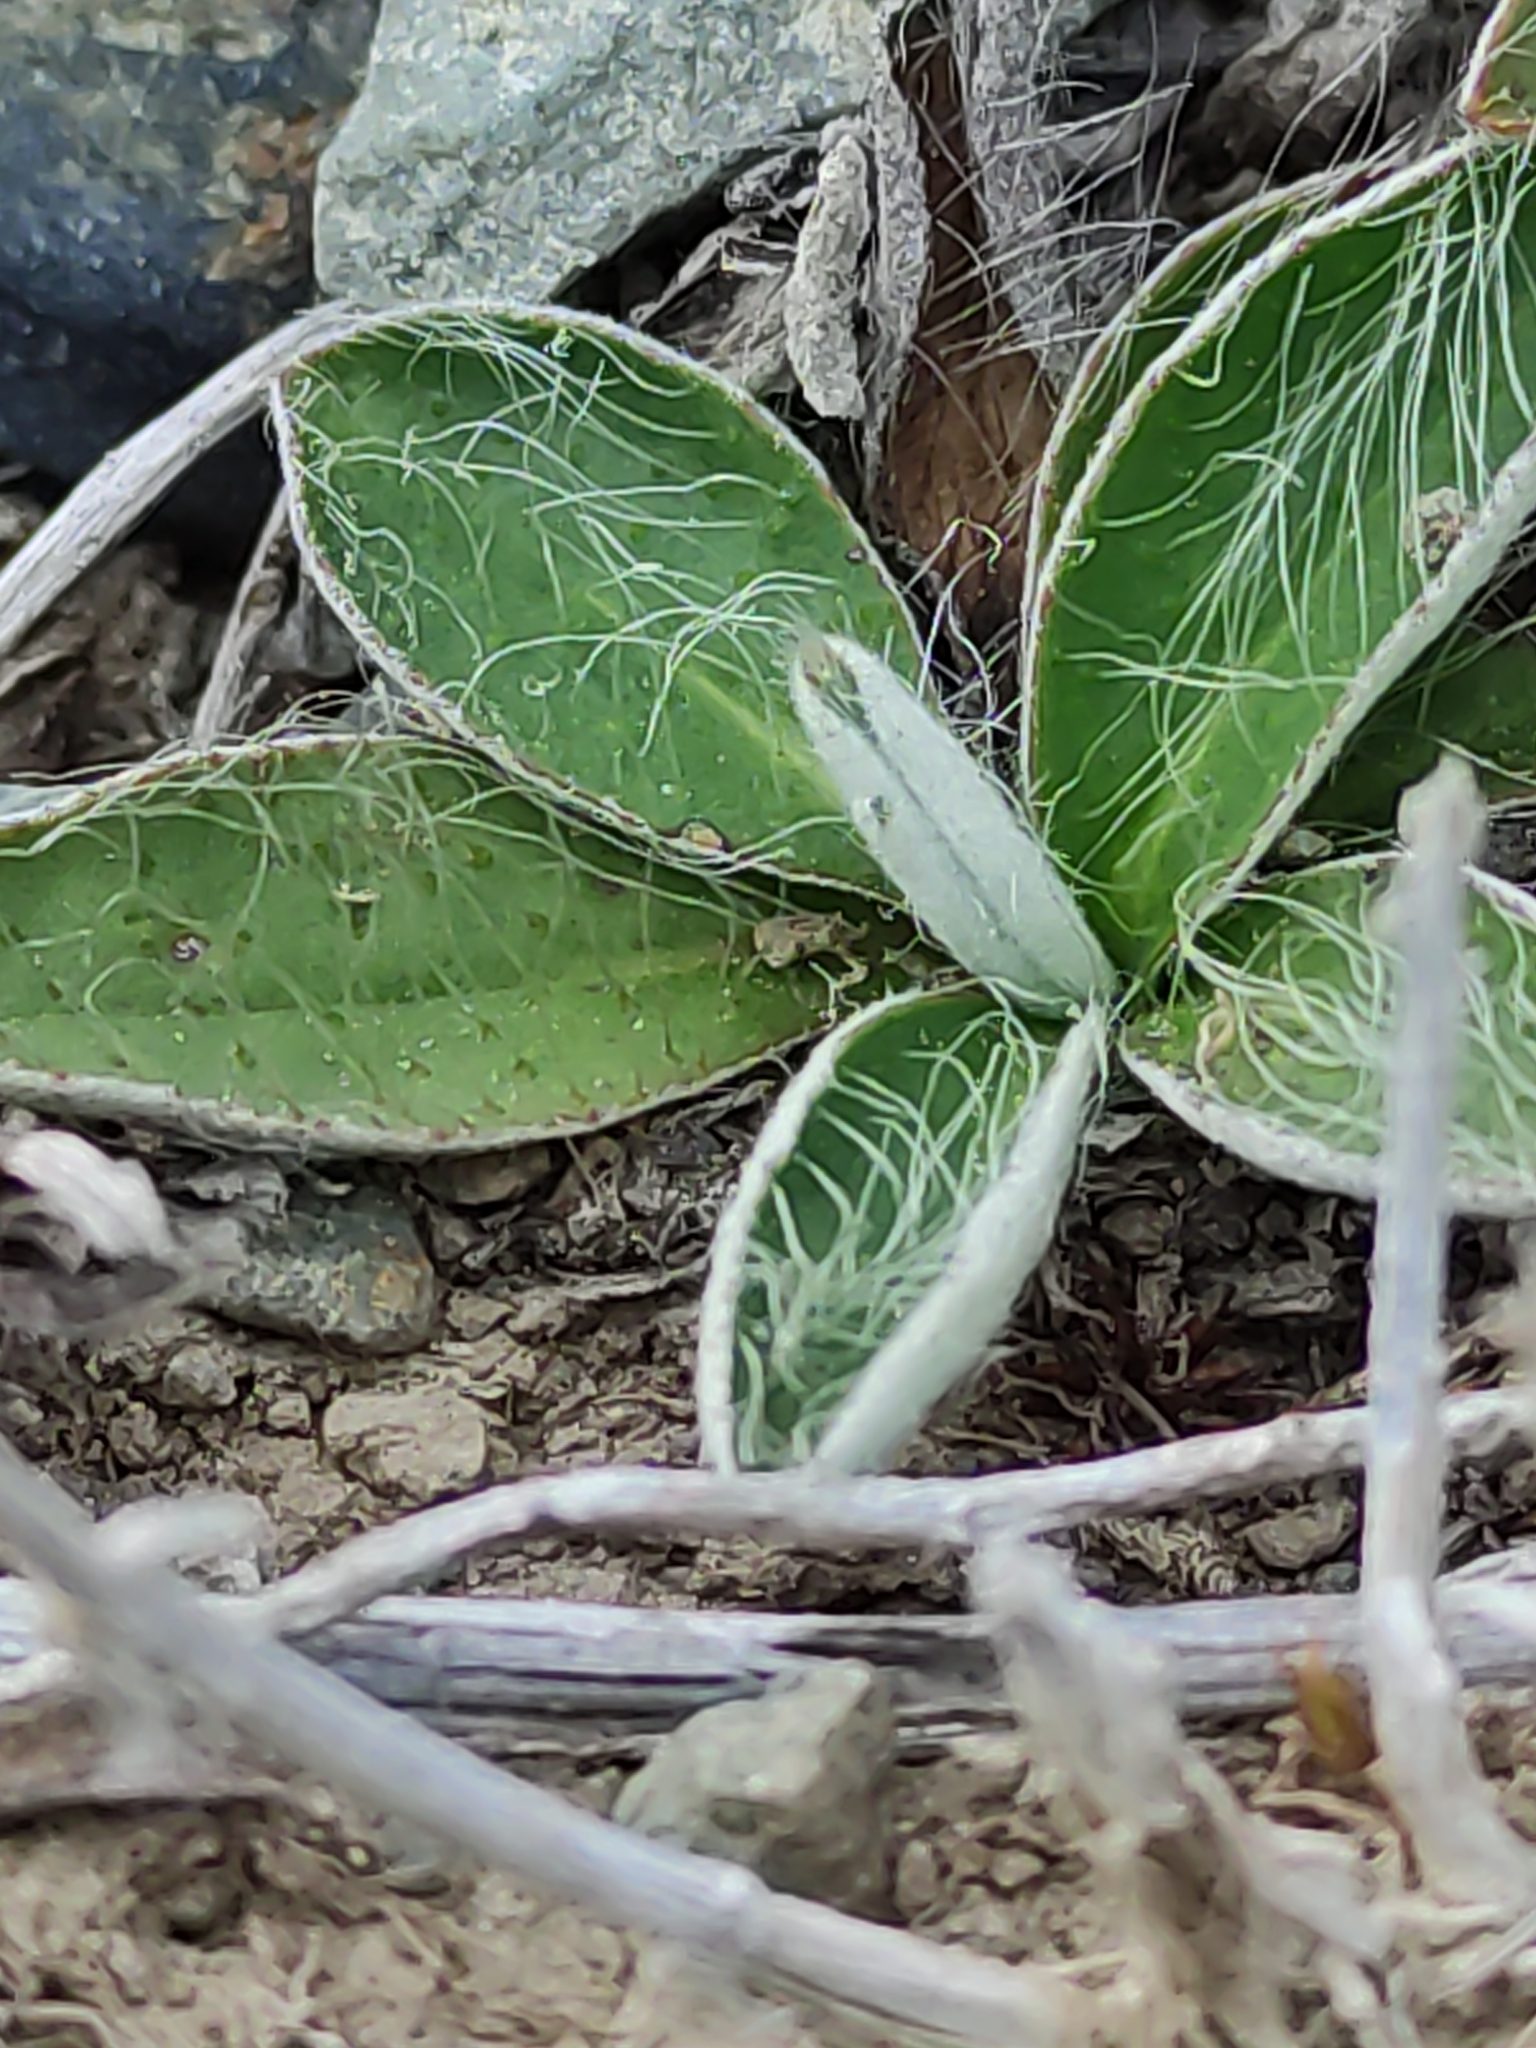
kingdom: Plantae
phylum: Tracheophyta
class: Magnoliopsida
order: Asterales
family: Asteraceae
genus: Pilosella
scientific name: Pilosella officinarum
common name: Mouse-ear hawkweed
